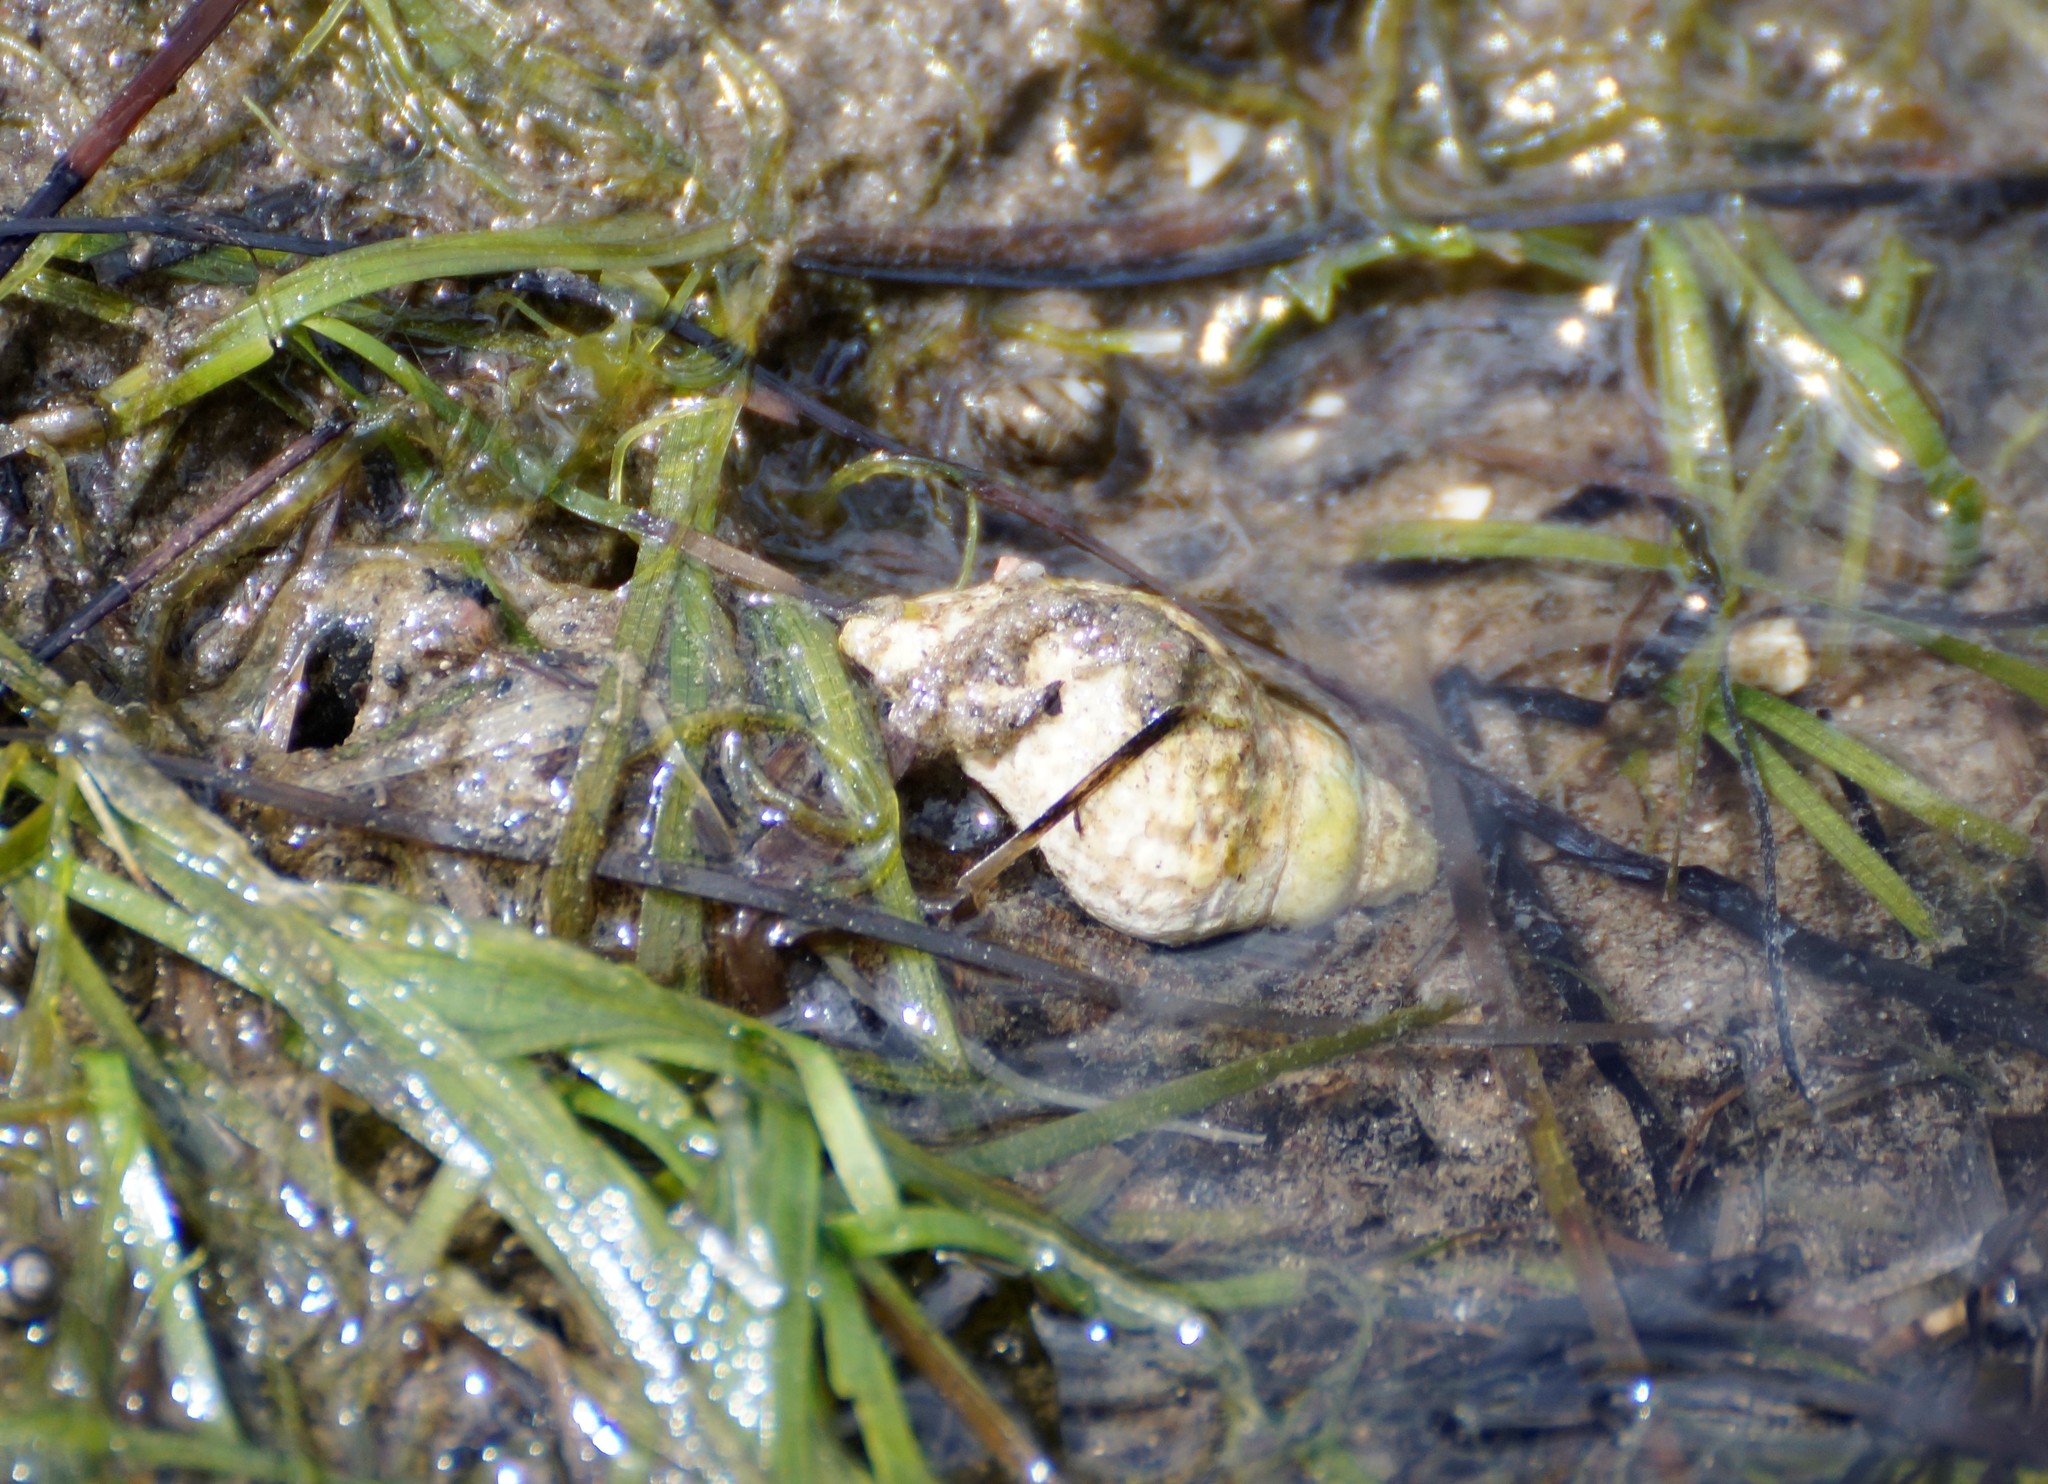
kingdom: Animalia
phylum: Mollusca
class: Gastropoda
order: Neogastropoda
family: Cominellidae
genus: Cominella
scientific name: Cominella lineolata
